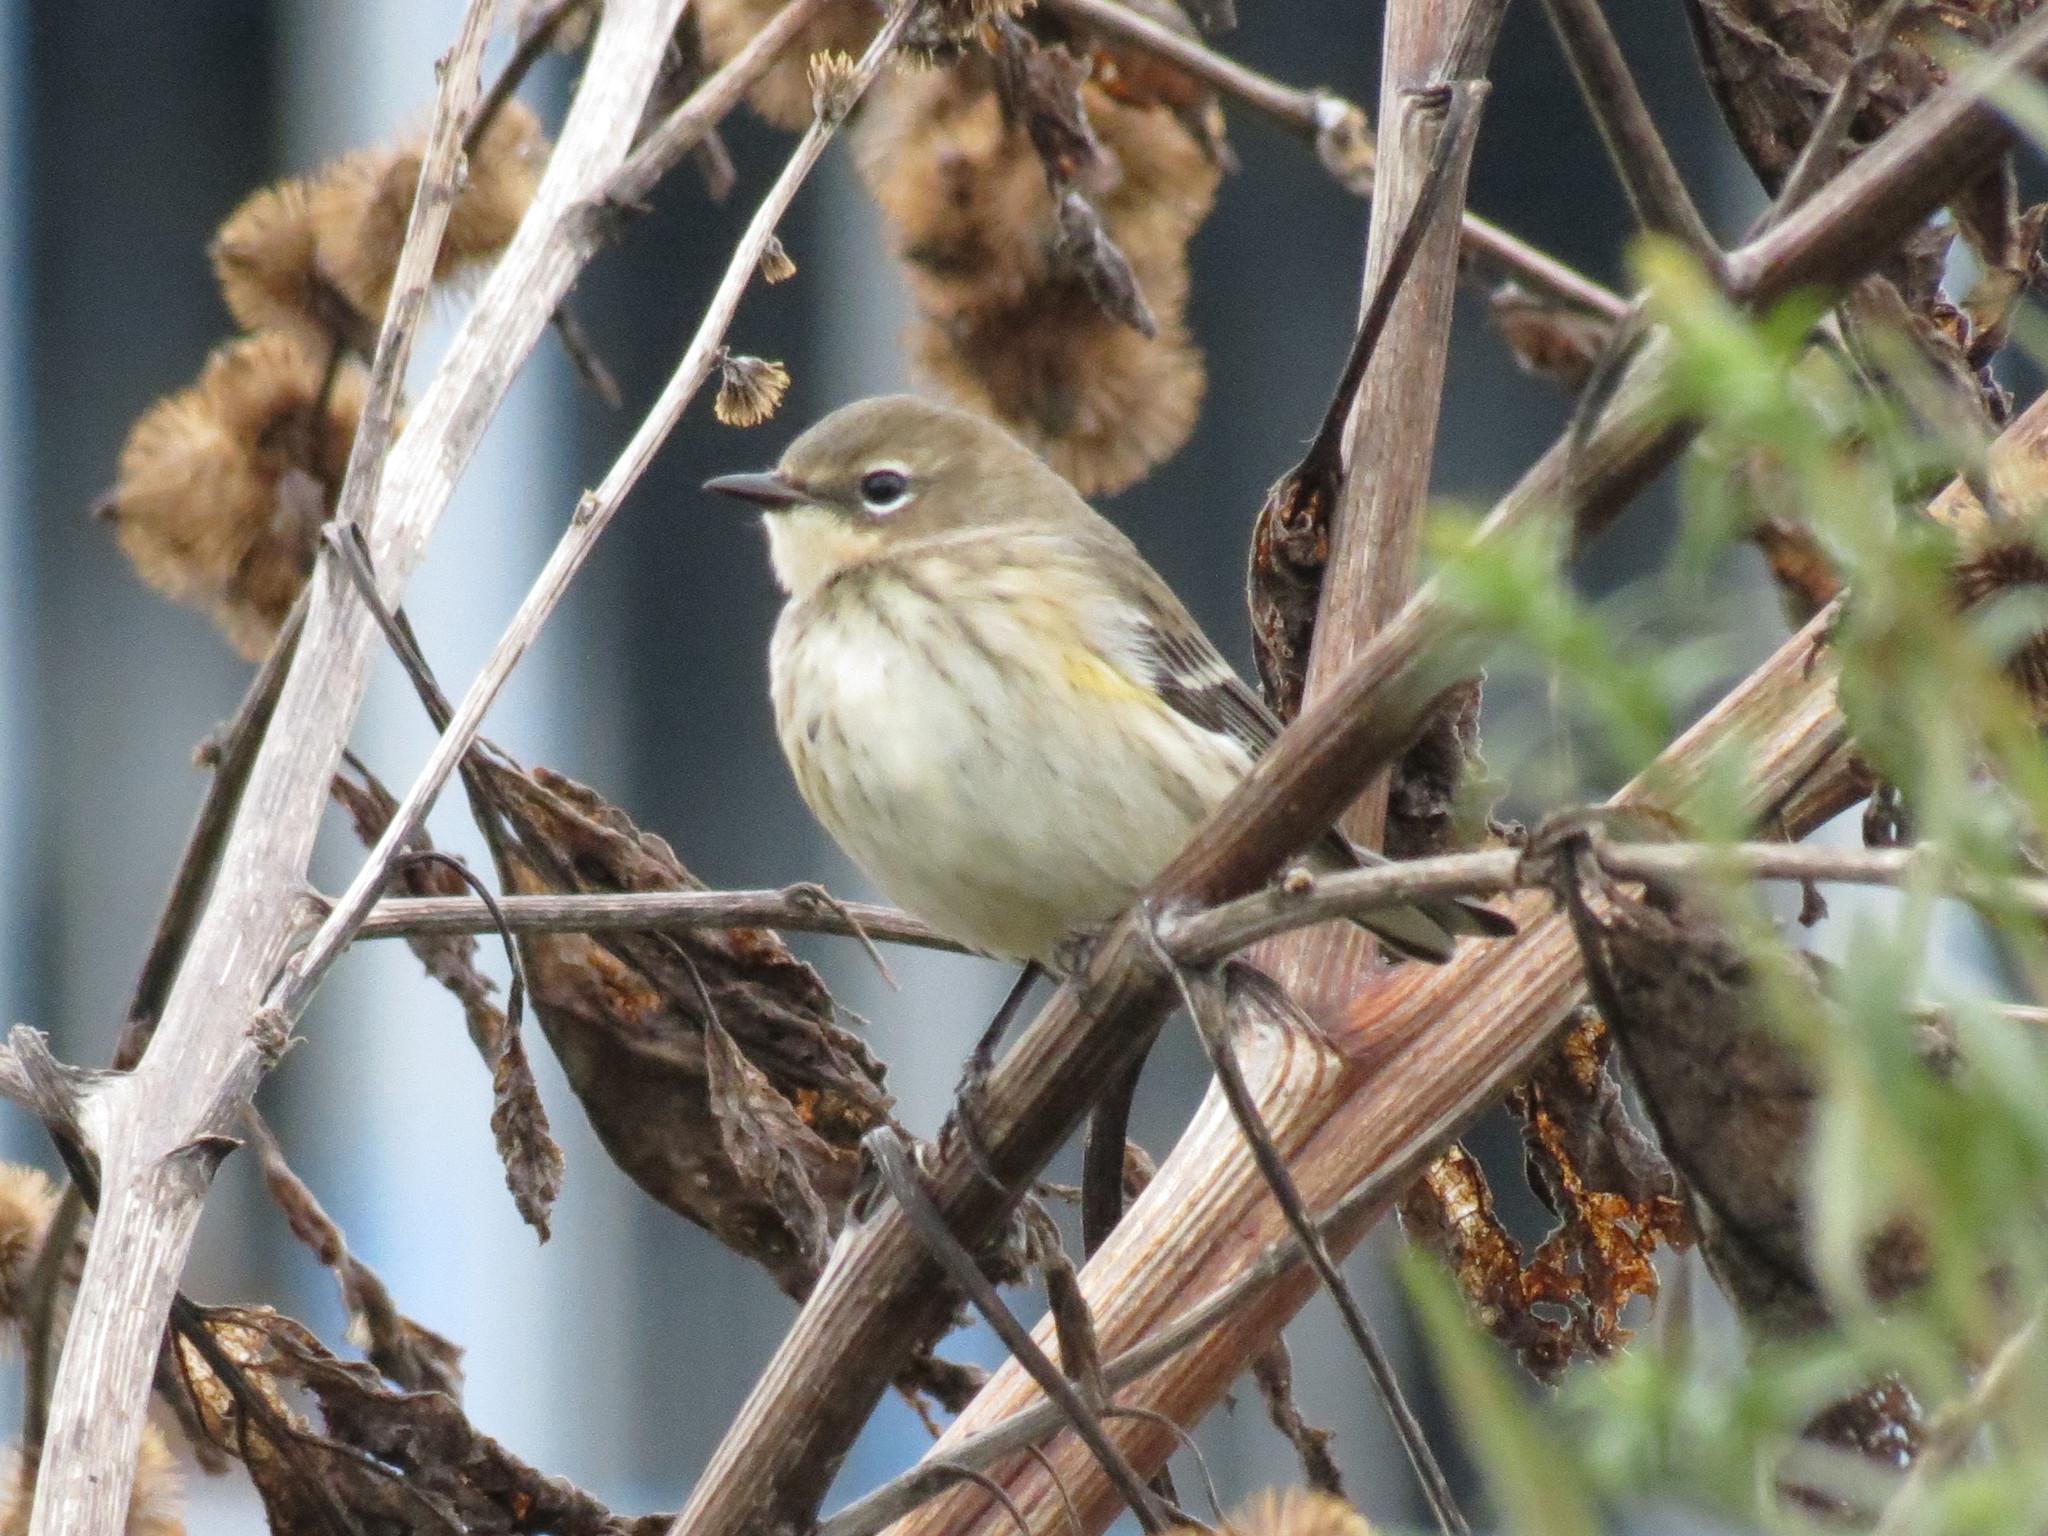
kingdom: Animalia
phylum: Chordata
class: Aves
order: Passeriformes
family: Parulidae
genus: Setophaga
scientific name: Setophaga coronata
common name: Myrtle warbler
